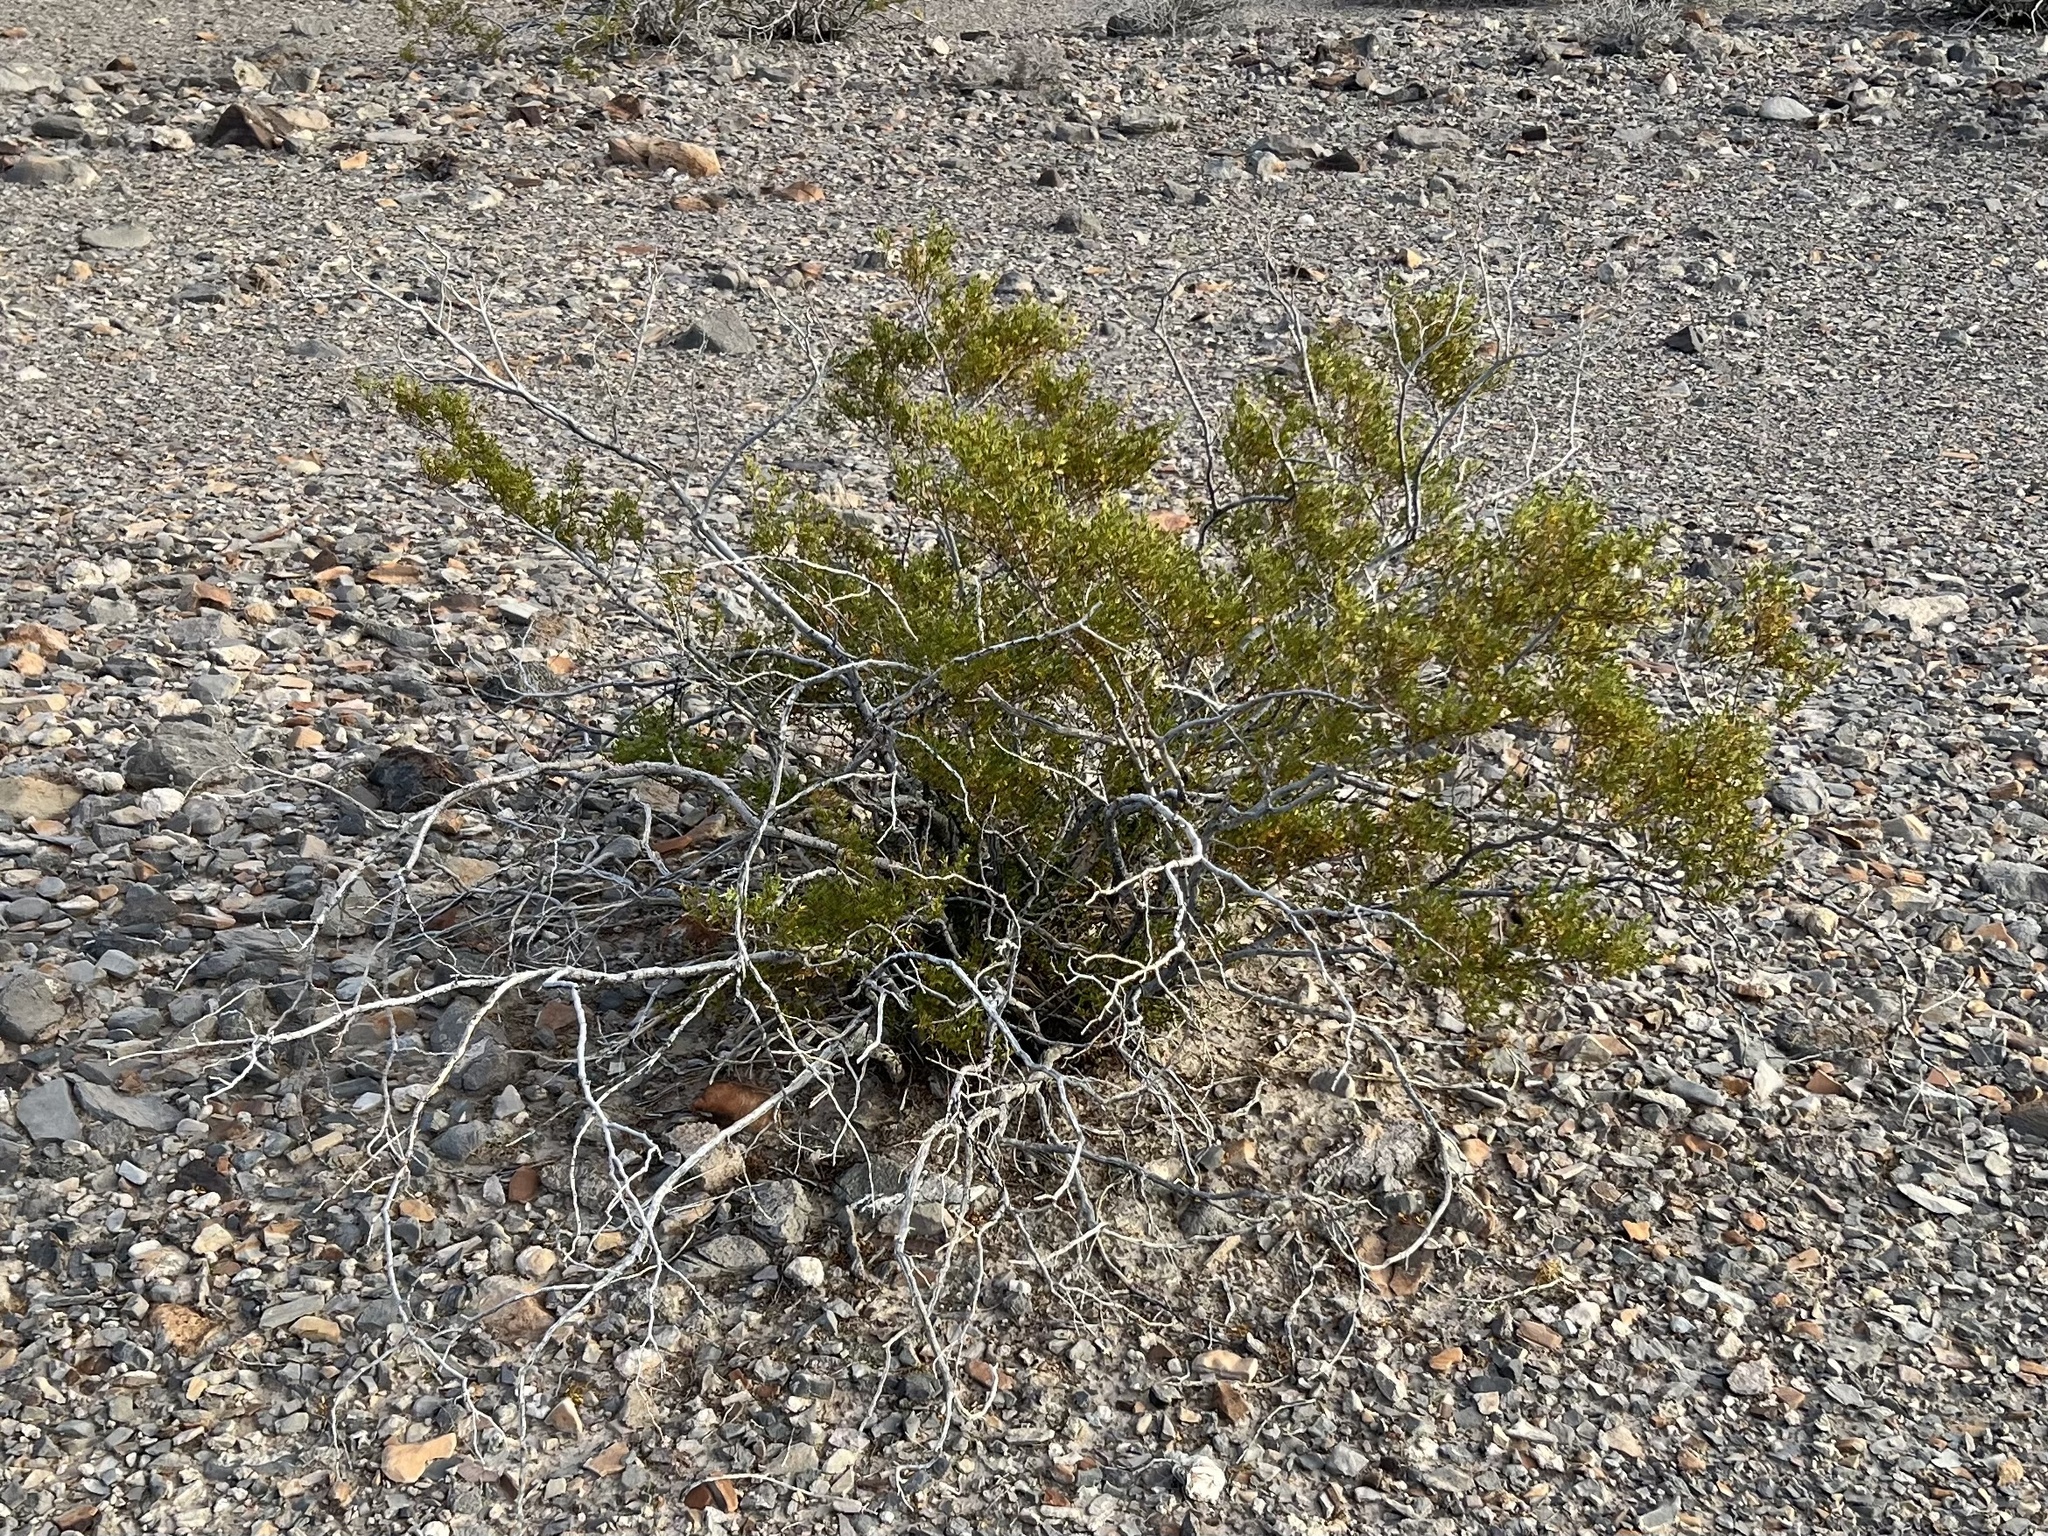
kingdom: Plantae
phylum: Tracheophyta
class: Magnoliopsida
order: Zygophyllales
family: Zygophyllaceae
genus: Larrea
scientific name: Larrea tridentata
